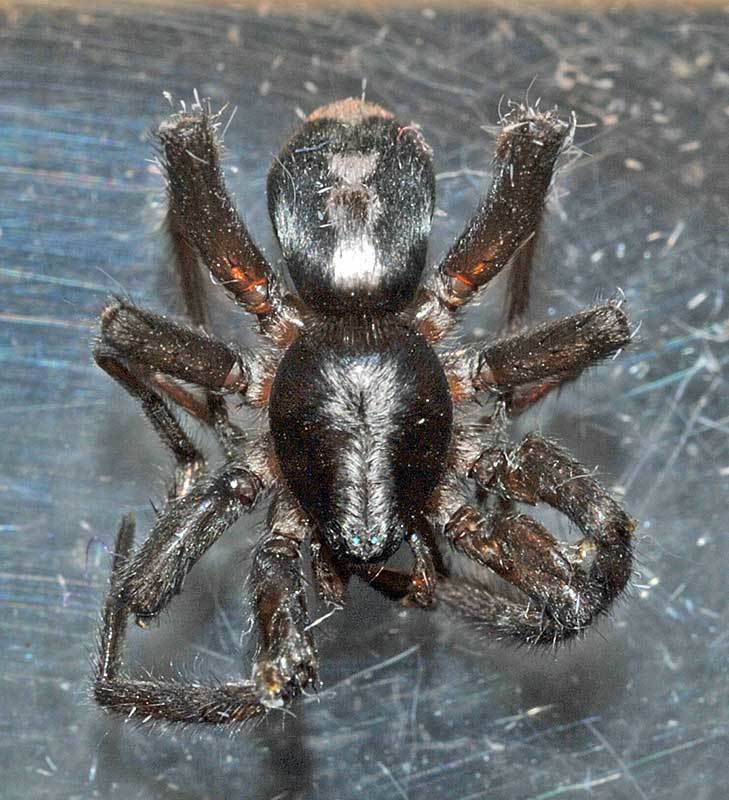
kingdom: Animalia
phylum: Arthropoda
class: Arachnida
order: Araneae
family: Gnaphosidae
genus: Herpyllus
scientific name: Herpyllus ecclesiasticus
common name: Eastern parson spider
